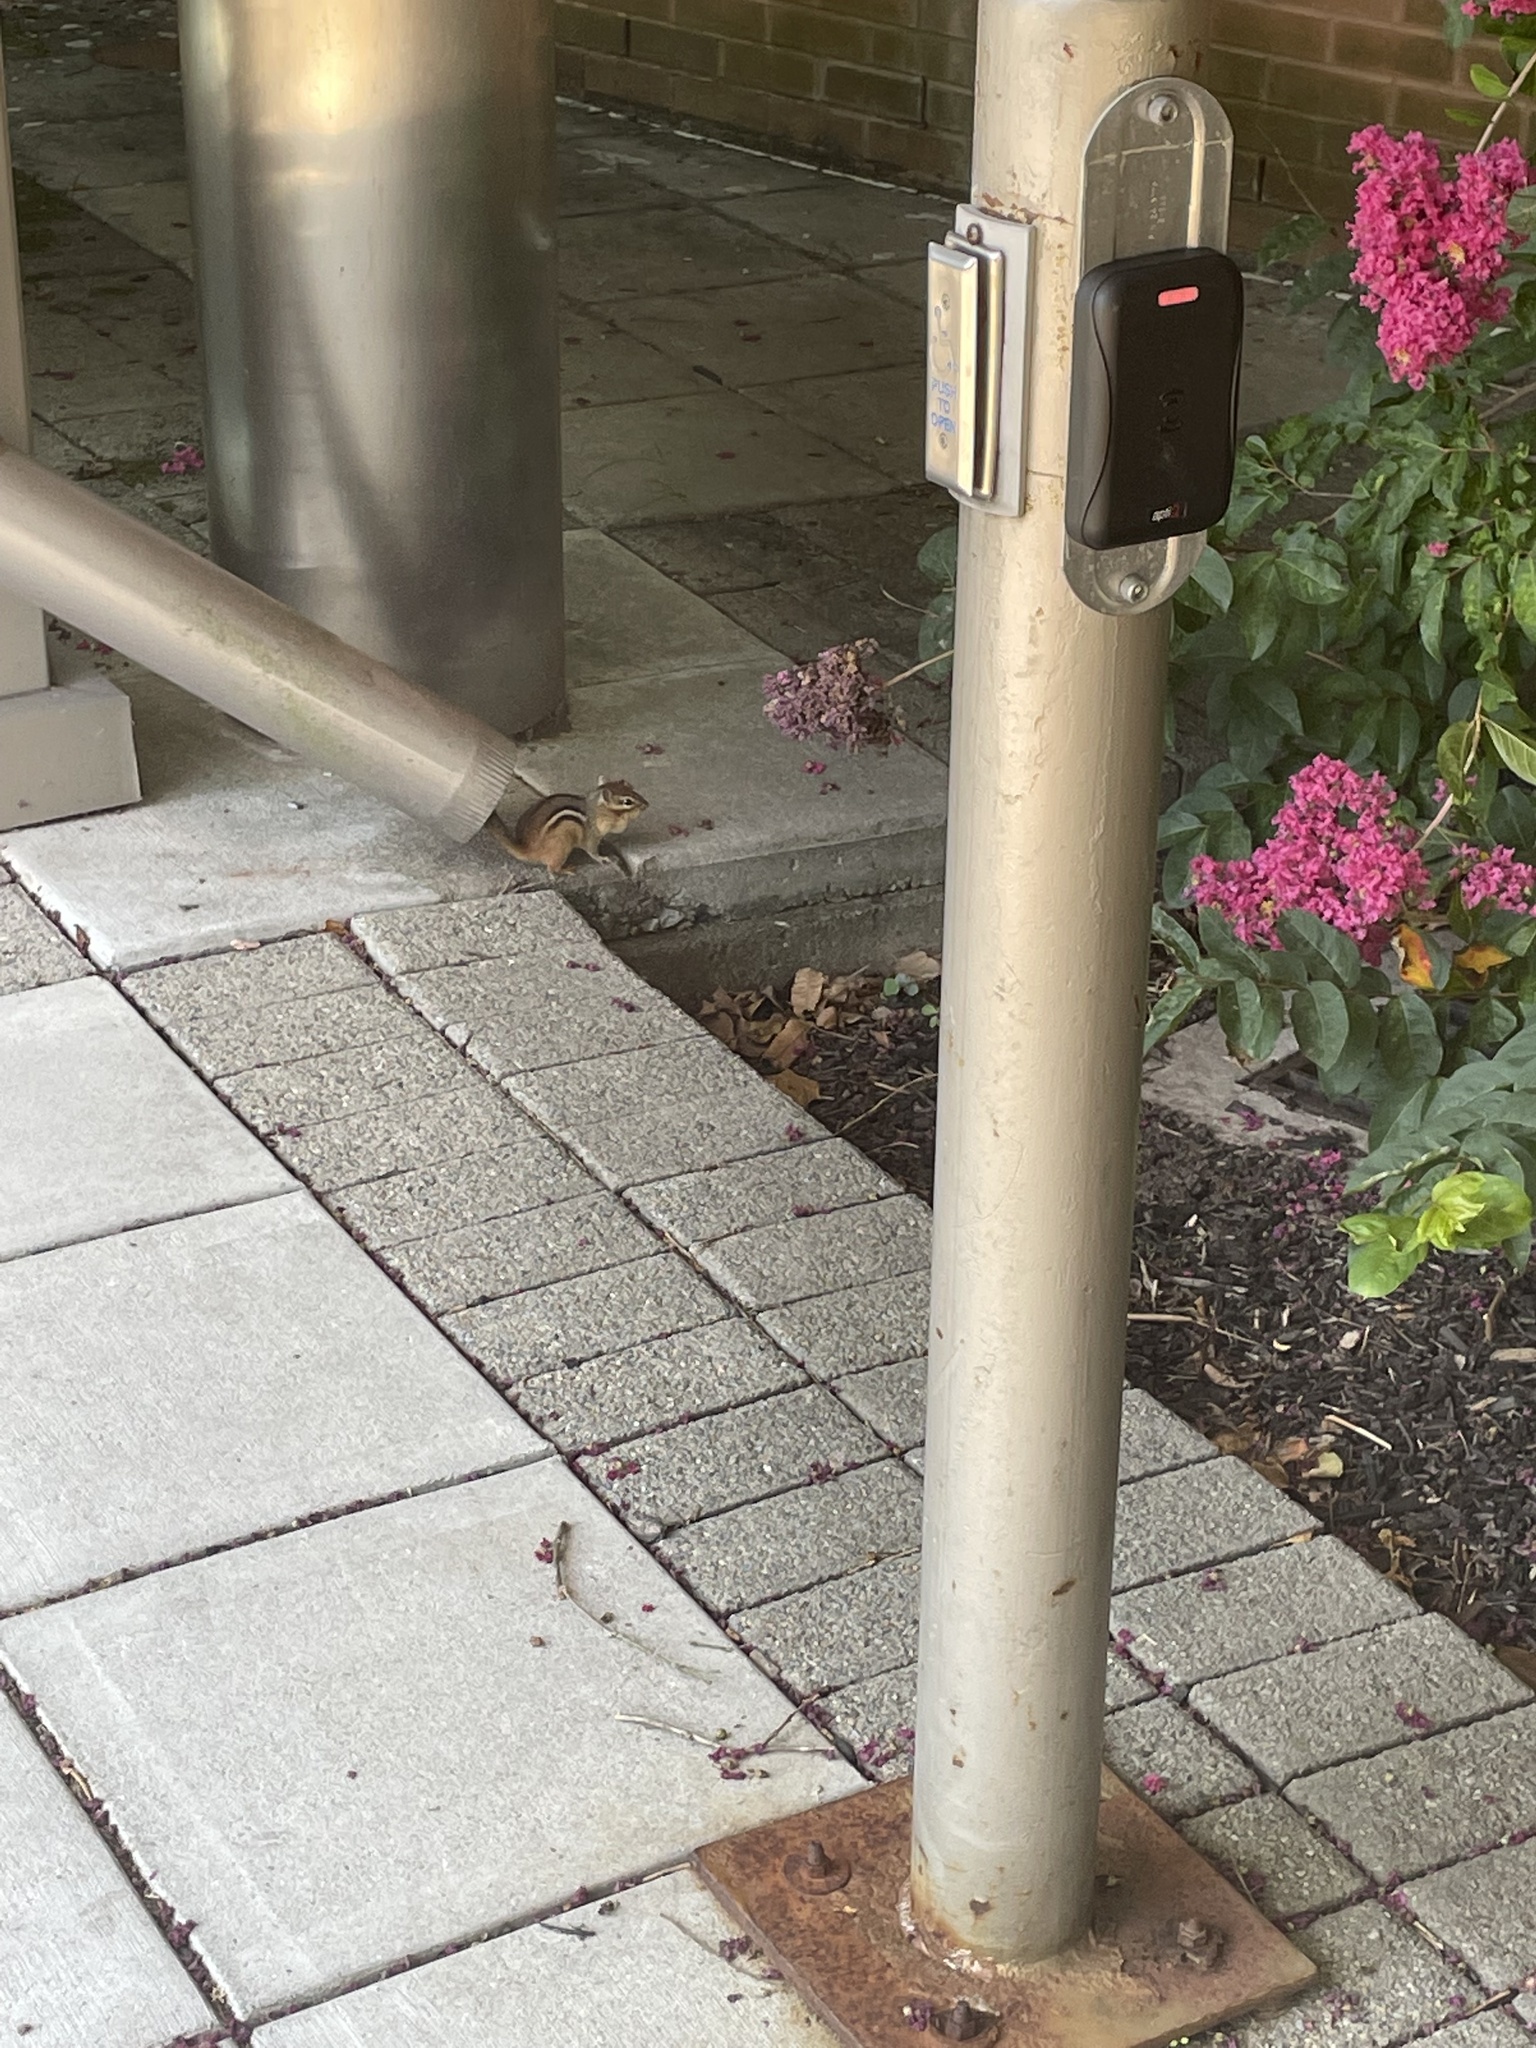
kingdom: Animalia
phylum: Chordata
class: Mammalia
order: Rodentia
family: Sciuridae
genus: Tamias
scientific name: Tamias striatus
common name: Eastern chipmunk
